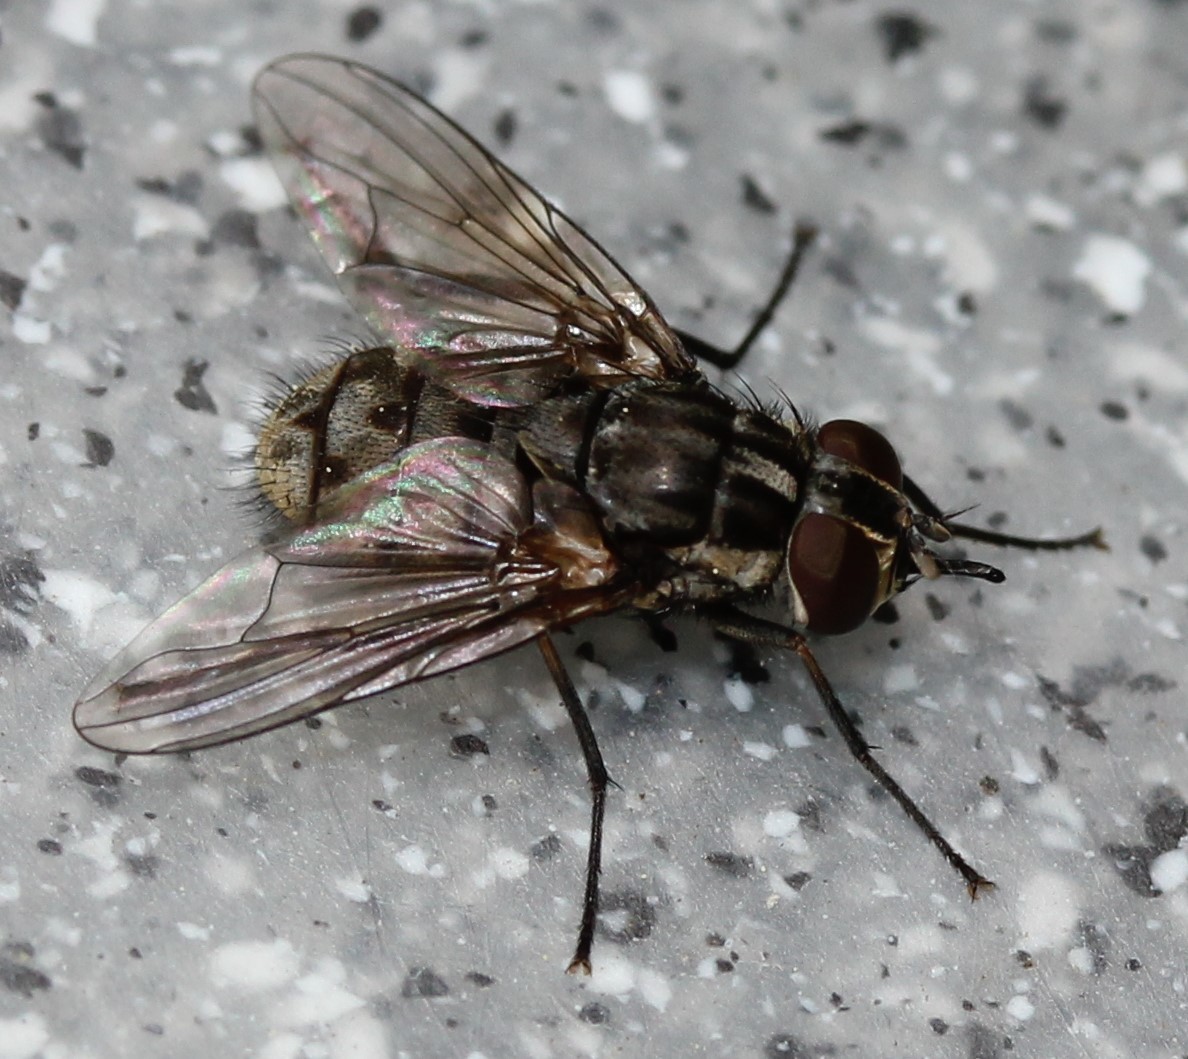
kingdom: Animalia
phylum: Arthropoda
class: Insecta
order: Diptera
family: Muscidae
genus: Stomoxys
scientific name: Stomoxys calcitrans
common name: Stable fly
